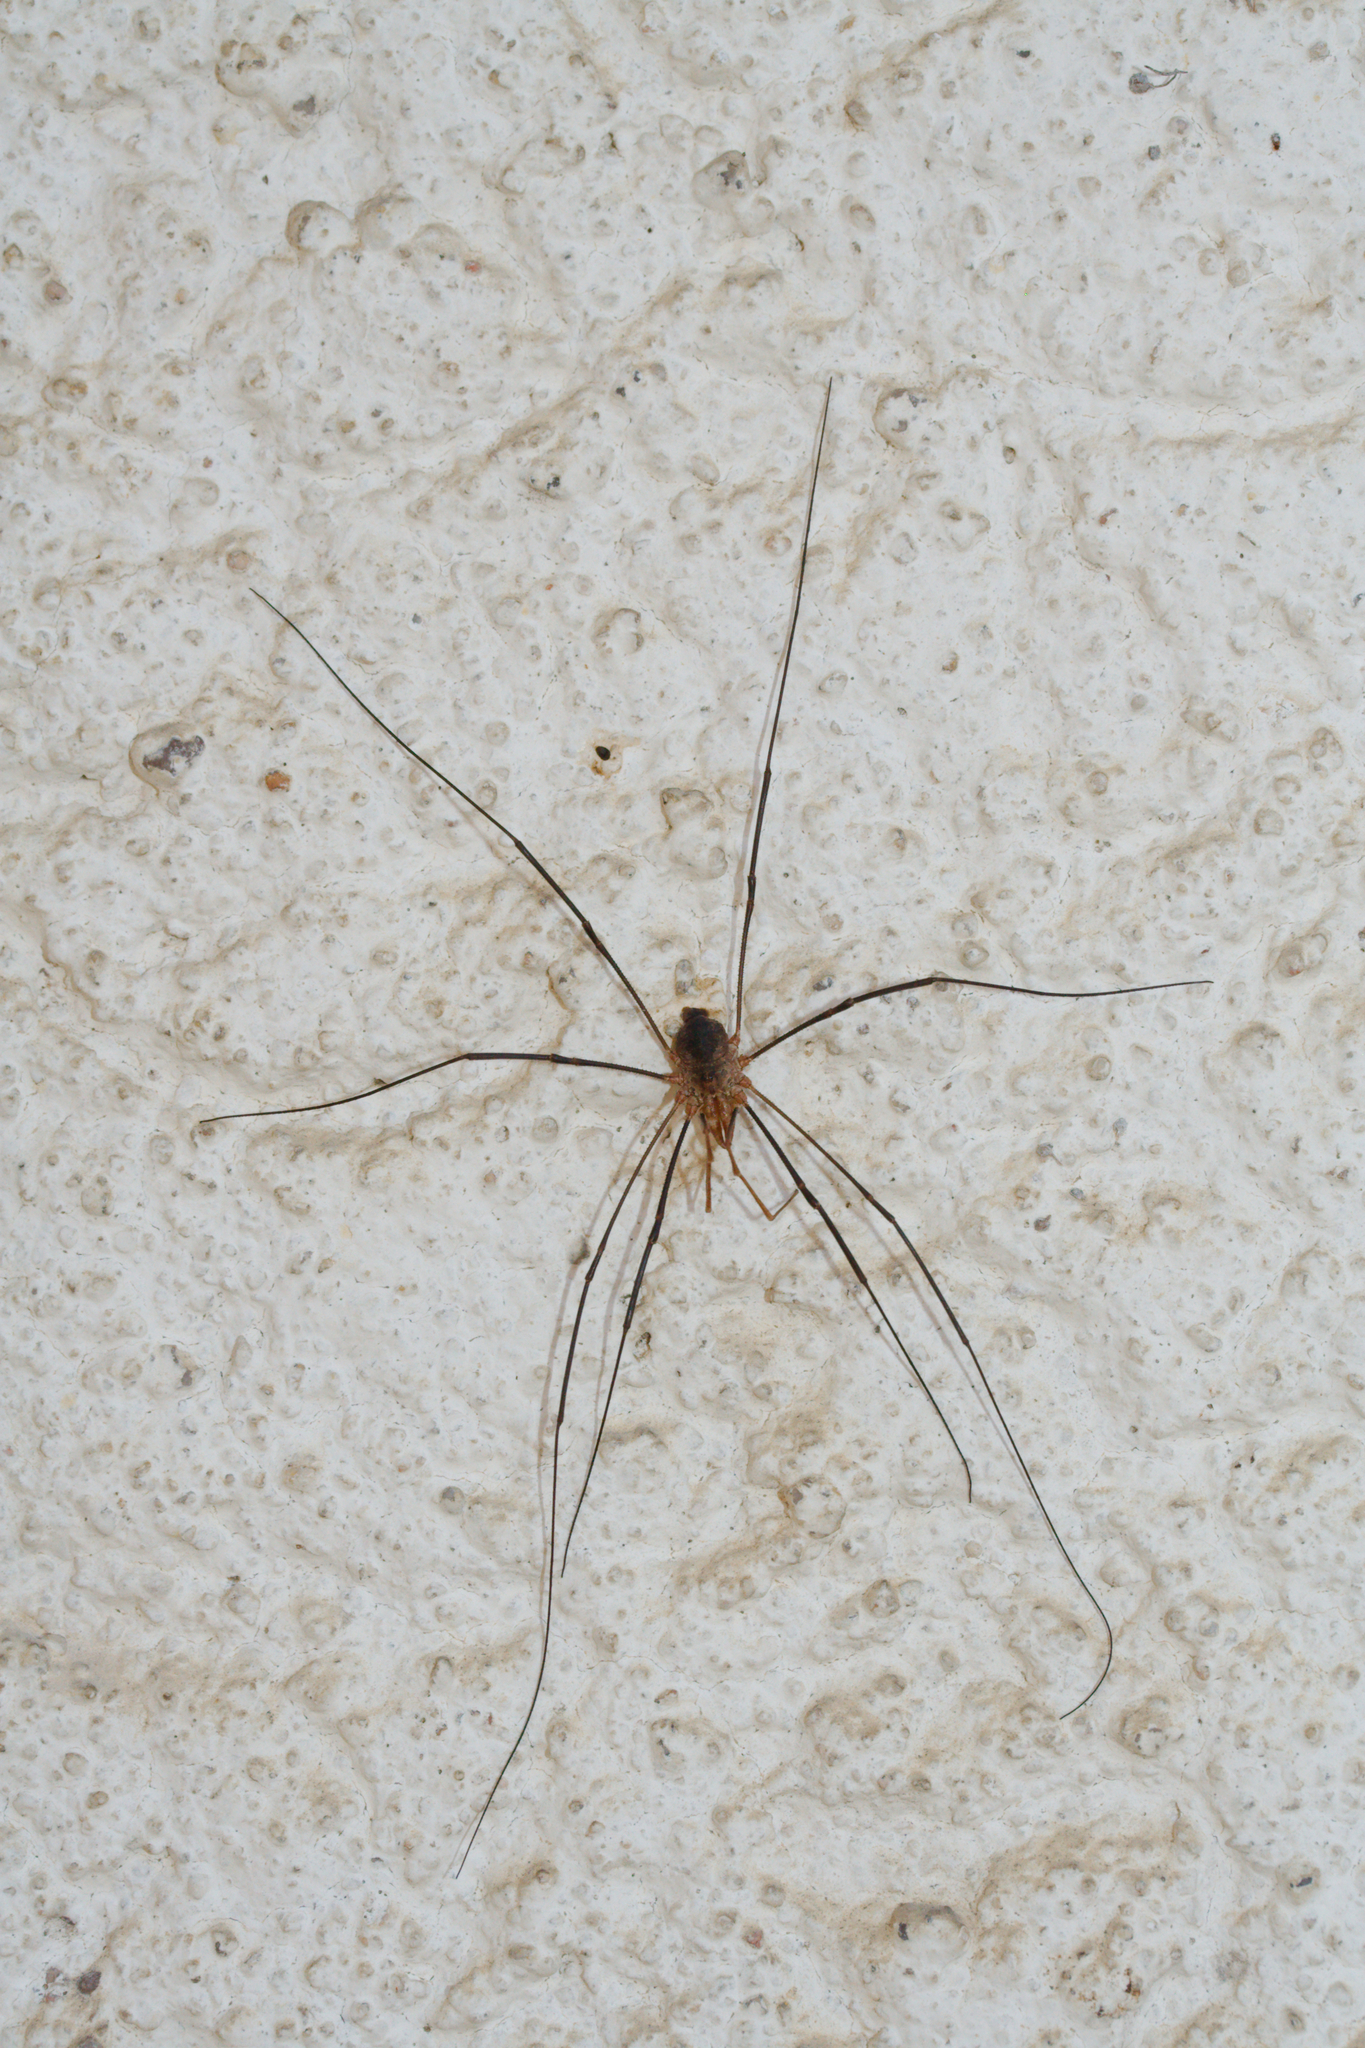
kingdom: Animalia
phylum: Arthropoda
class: Arachnida
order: Opiliones
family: Phalangiidae
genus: Phalangium
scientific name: Phalangium opilio
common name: Daddy longleg
